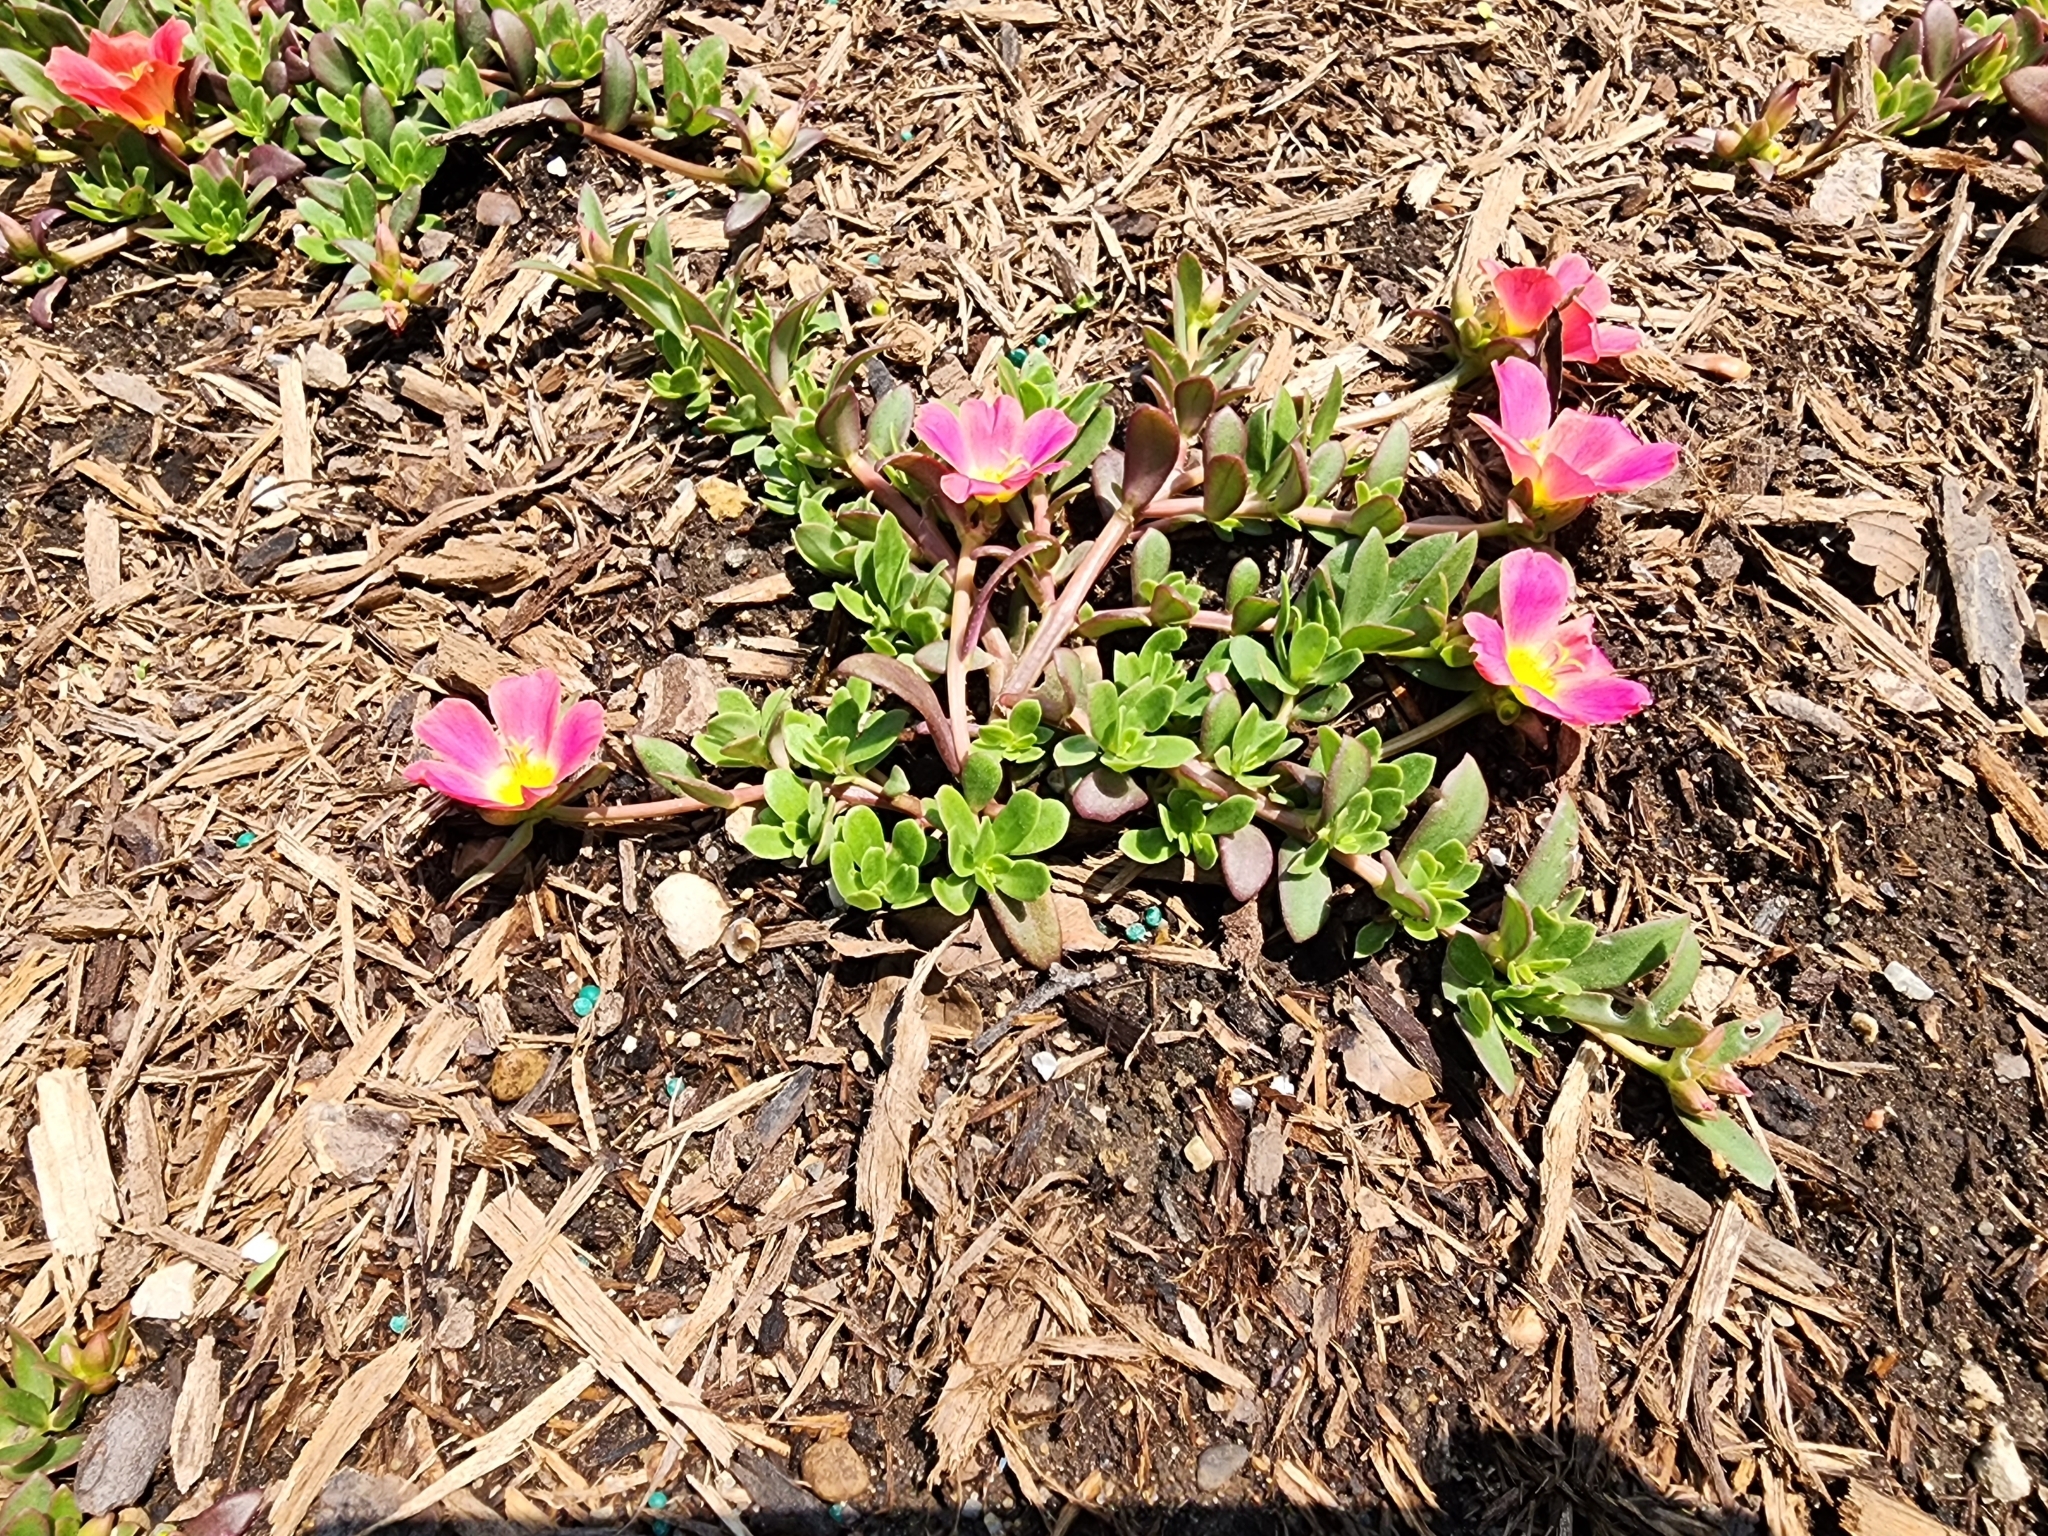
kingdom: Plantae
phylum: Tracheophyta
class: Magnoliopsida
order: Caryophyllales
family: Portulacaceae
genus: Portulaca
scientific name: Portulaca umbraticola
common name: Wingpod purslane
